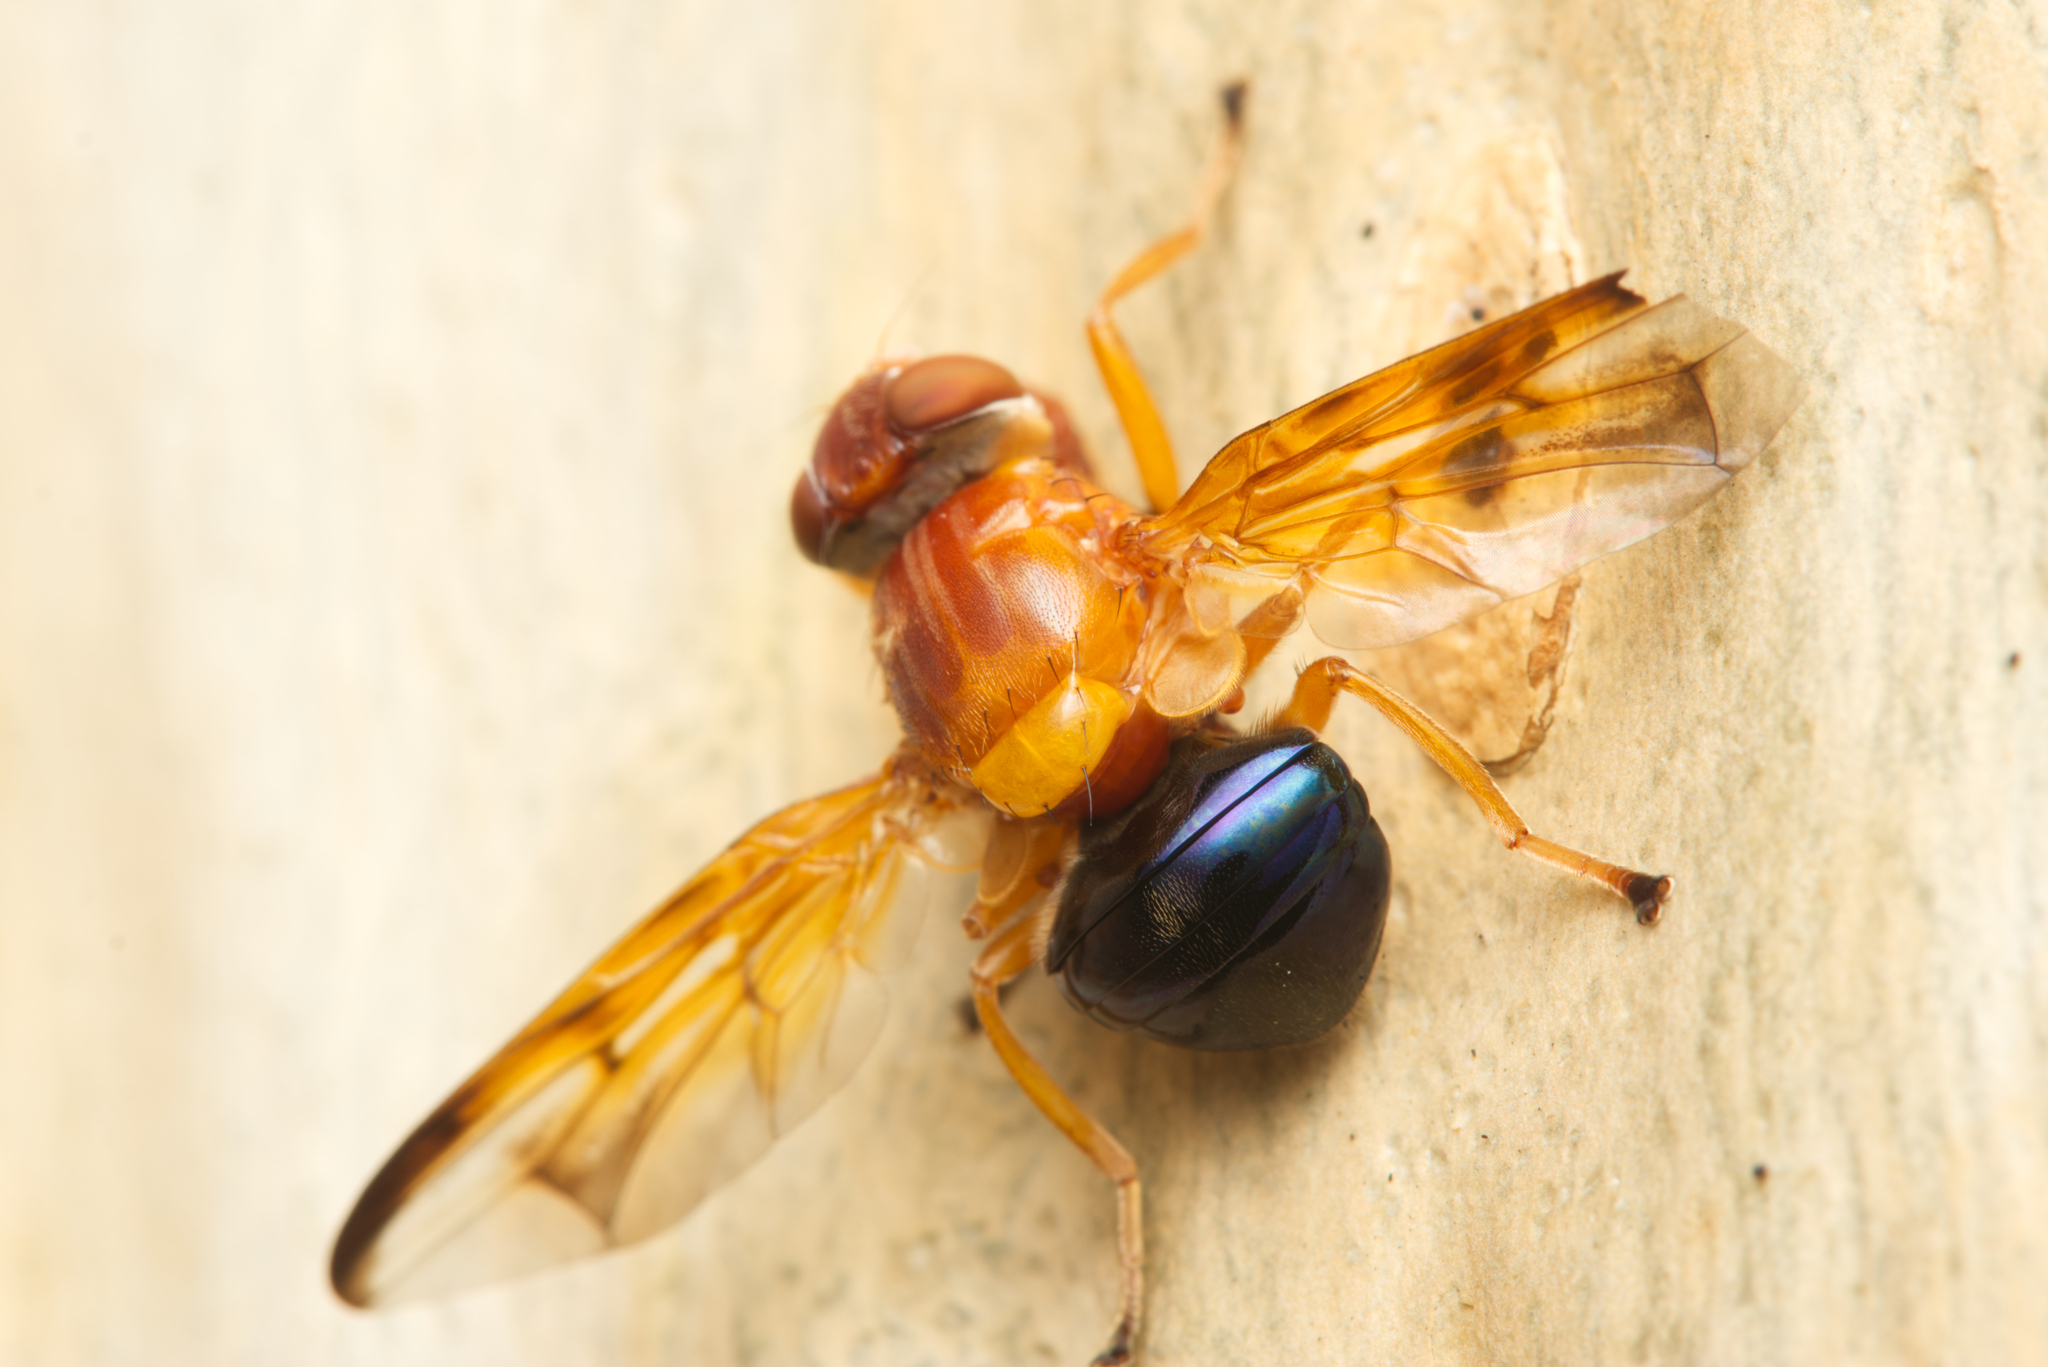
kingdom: Animalia
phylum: Arthropoda
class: Insecta
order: Diptera
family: Platystomatidae
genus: Lamprogaster
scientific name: Lamprogaster bicolor
